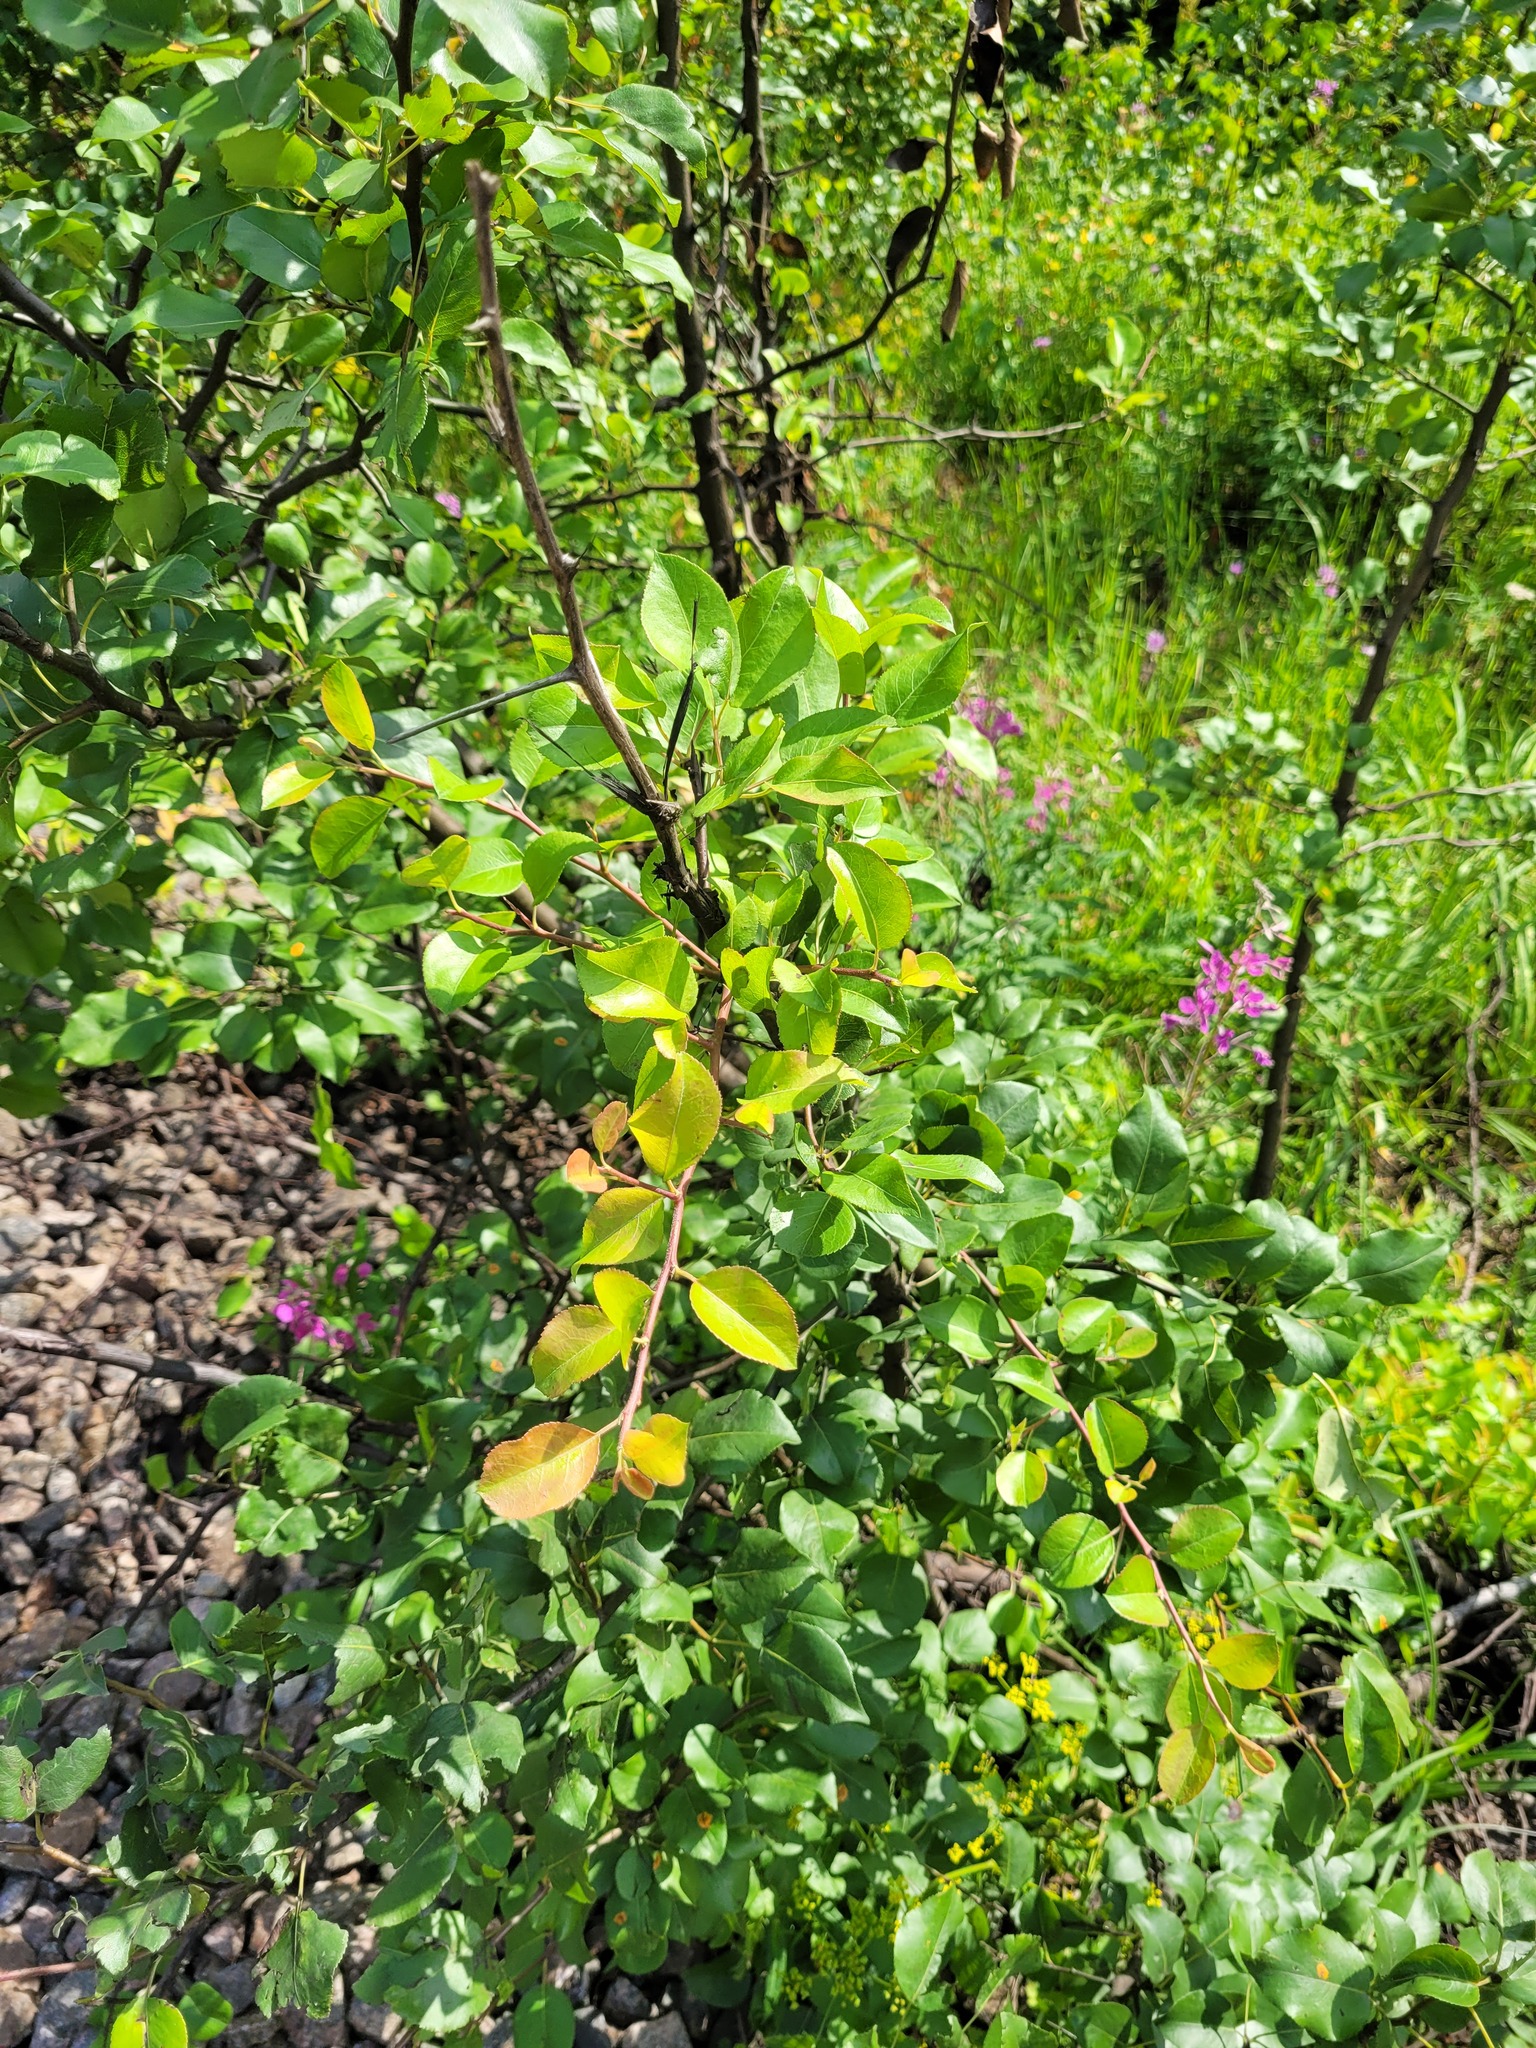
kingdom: Plantae
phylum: Tracheophyta
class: Magnoliopsida
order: Rosales
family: Rosaceae
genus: Pyrus
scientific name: Pyrus communis
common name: Pear
